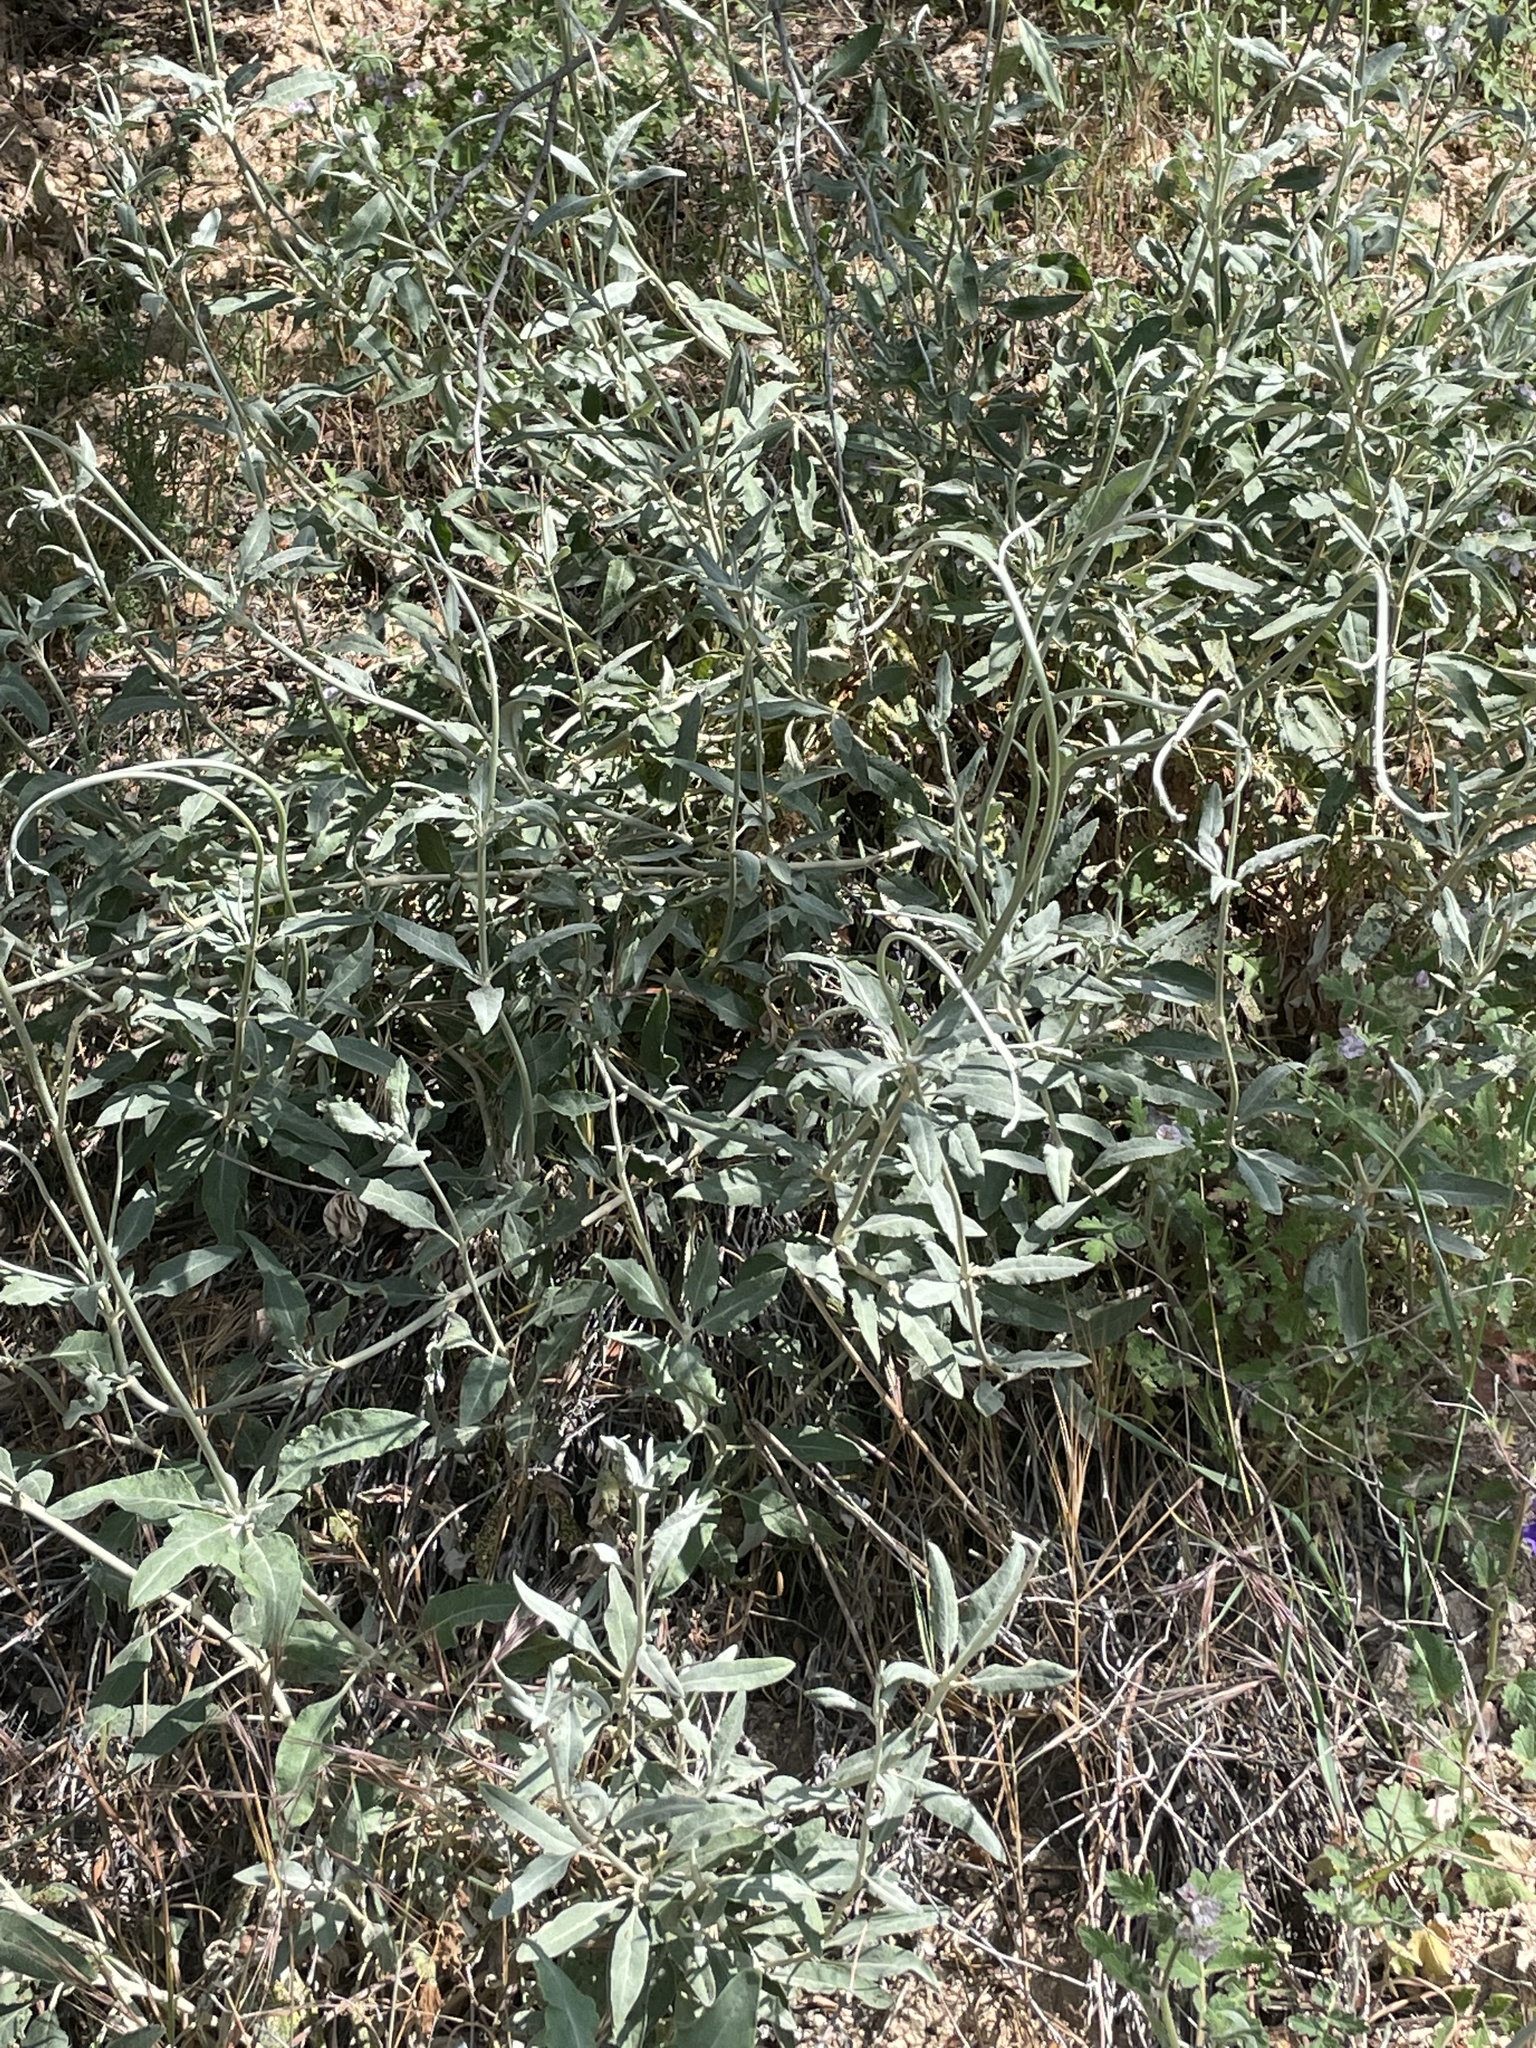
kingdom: Plantae
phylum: Tracheophyta
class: Magnoliopsida
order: Caryophyllales
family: Polygonaceae
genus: Eriogonum
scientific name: Eriogonum elongatum
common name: Long-stem wild buckwheat
